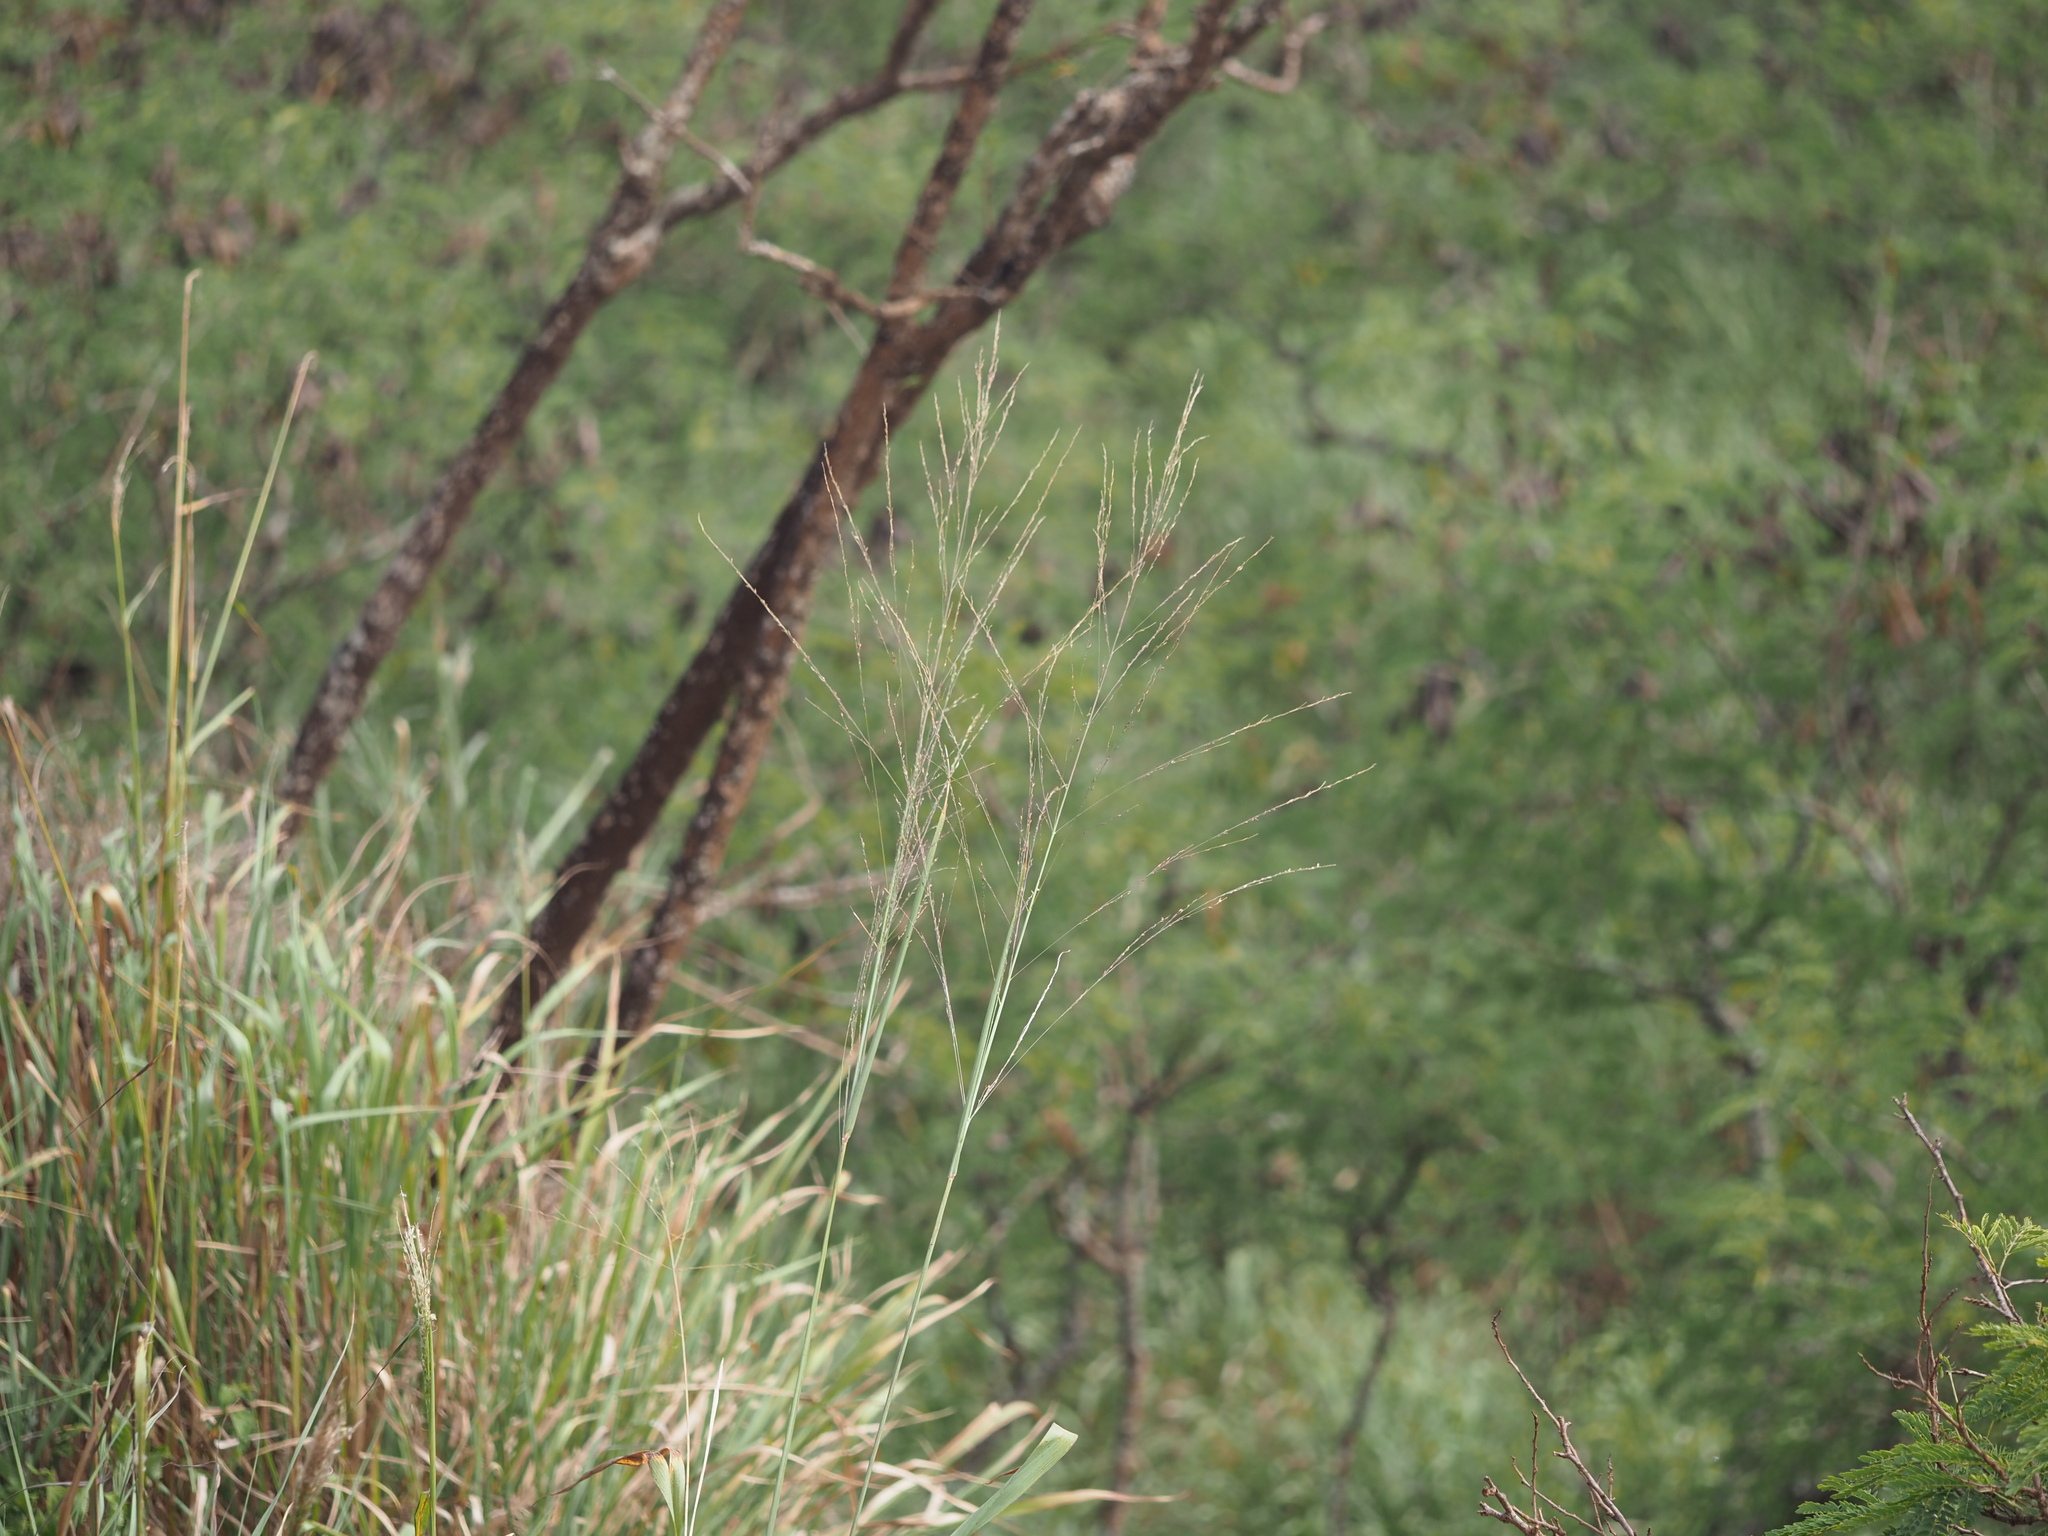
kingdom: Plantae
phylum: Tracheophyta
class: Liliopsida
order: Poales
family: Poaceae
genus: Megathyrsus
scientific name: Megathyrsus maximus
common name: Guineagrass
